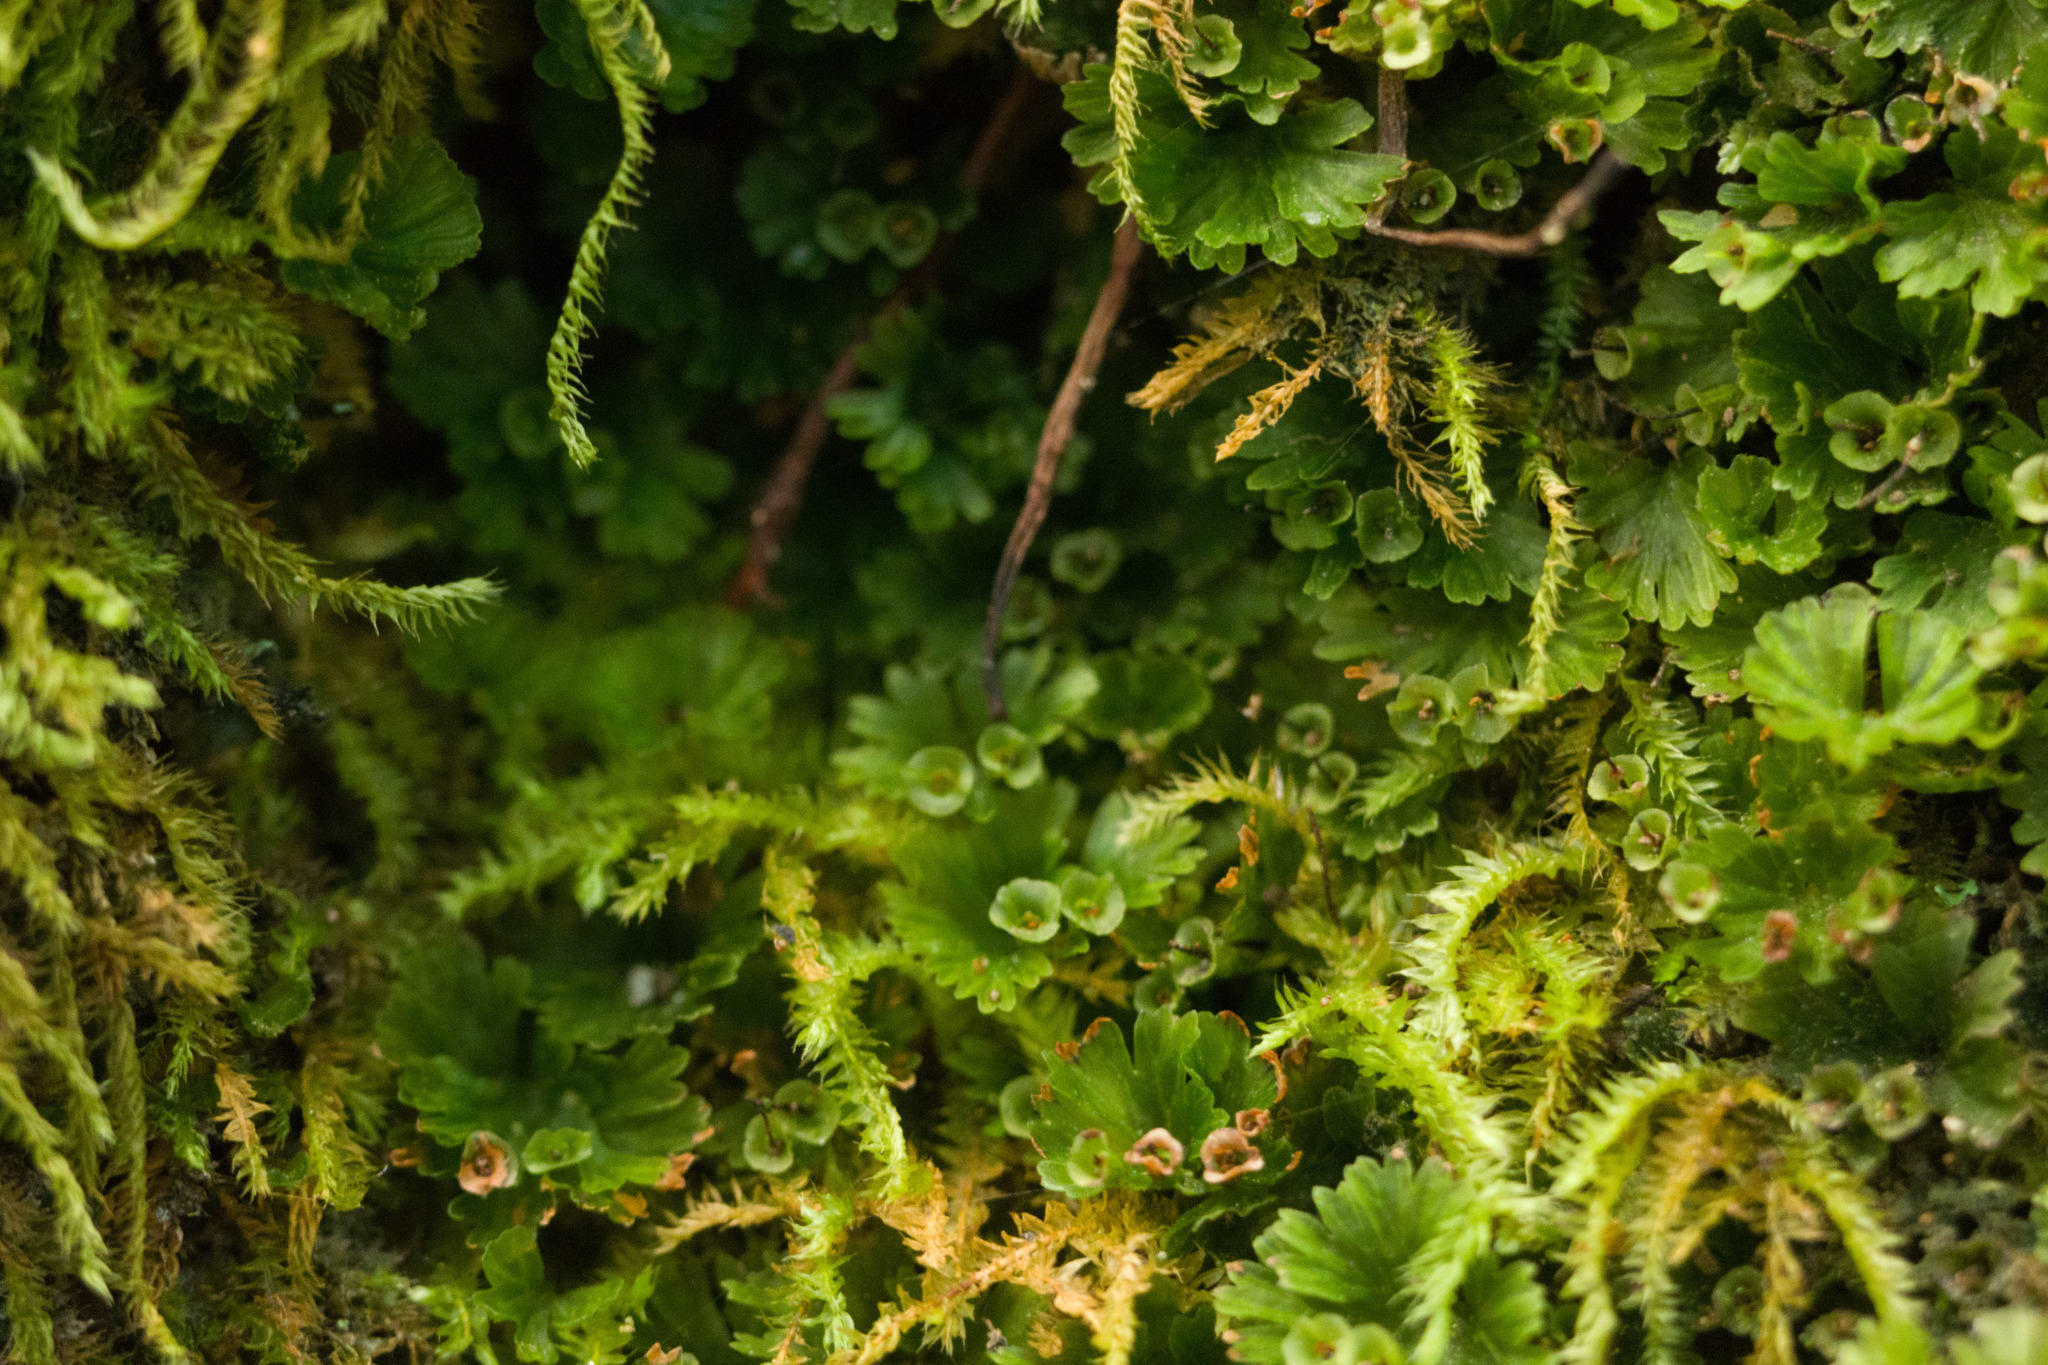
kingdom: Plantae
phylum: Tracheophyta
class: Polypodiopsida
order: Hymenophyllales
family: Hymenophyllaceae
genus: Crepidomanes
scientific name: Crepidomanes parvulum
